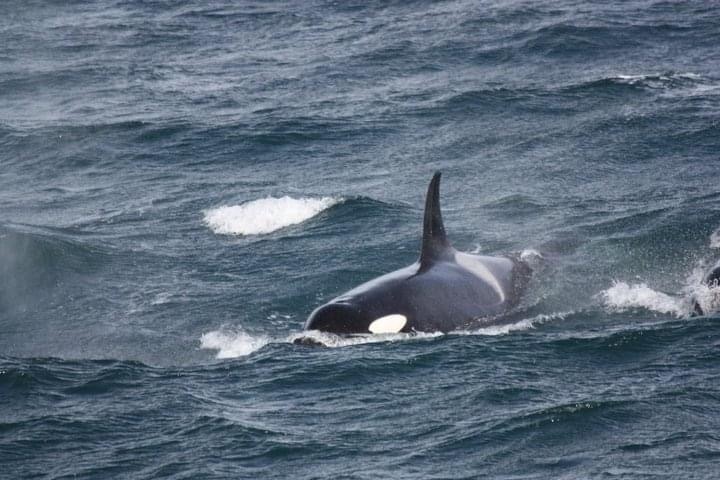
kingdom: Animalia
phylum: Chordata
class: Mammalia
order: Cetacea
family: Delphinidae
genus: Orcinus
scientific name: Orcinus orca
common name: Killer whale
